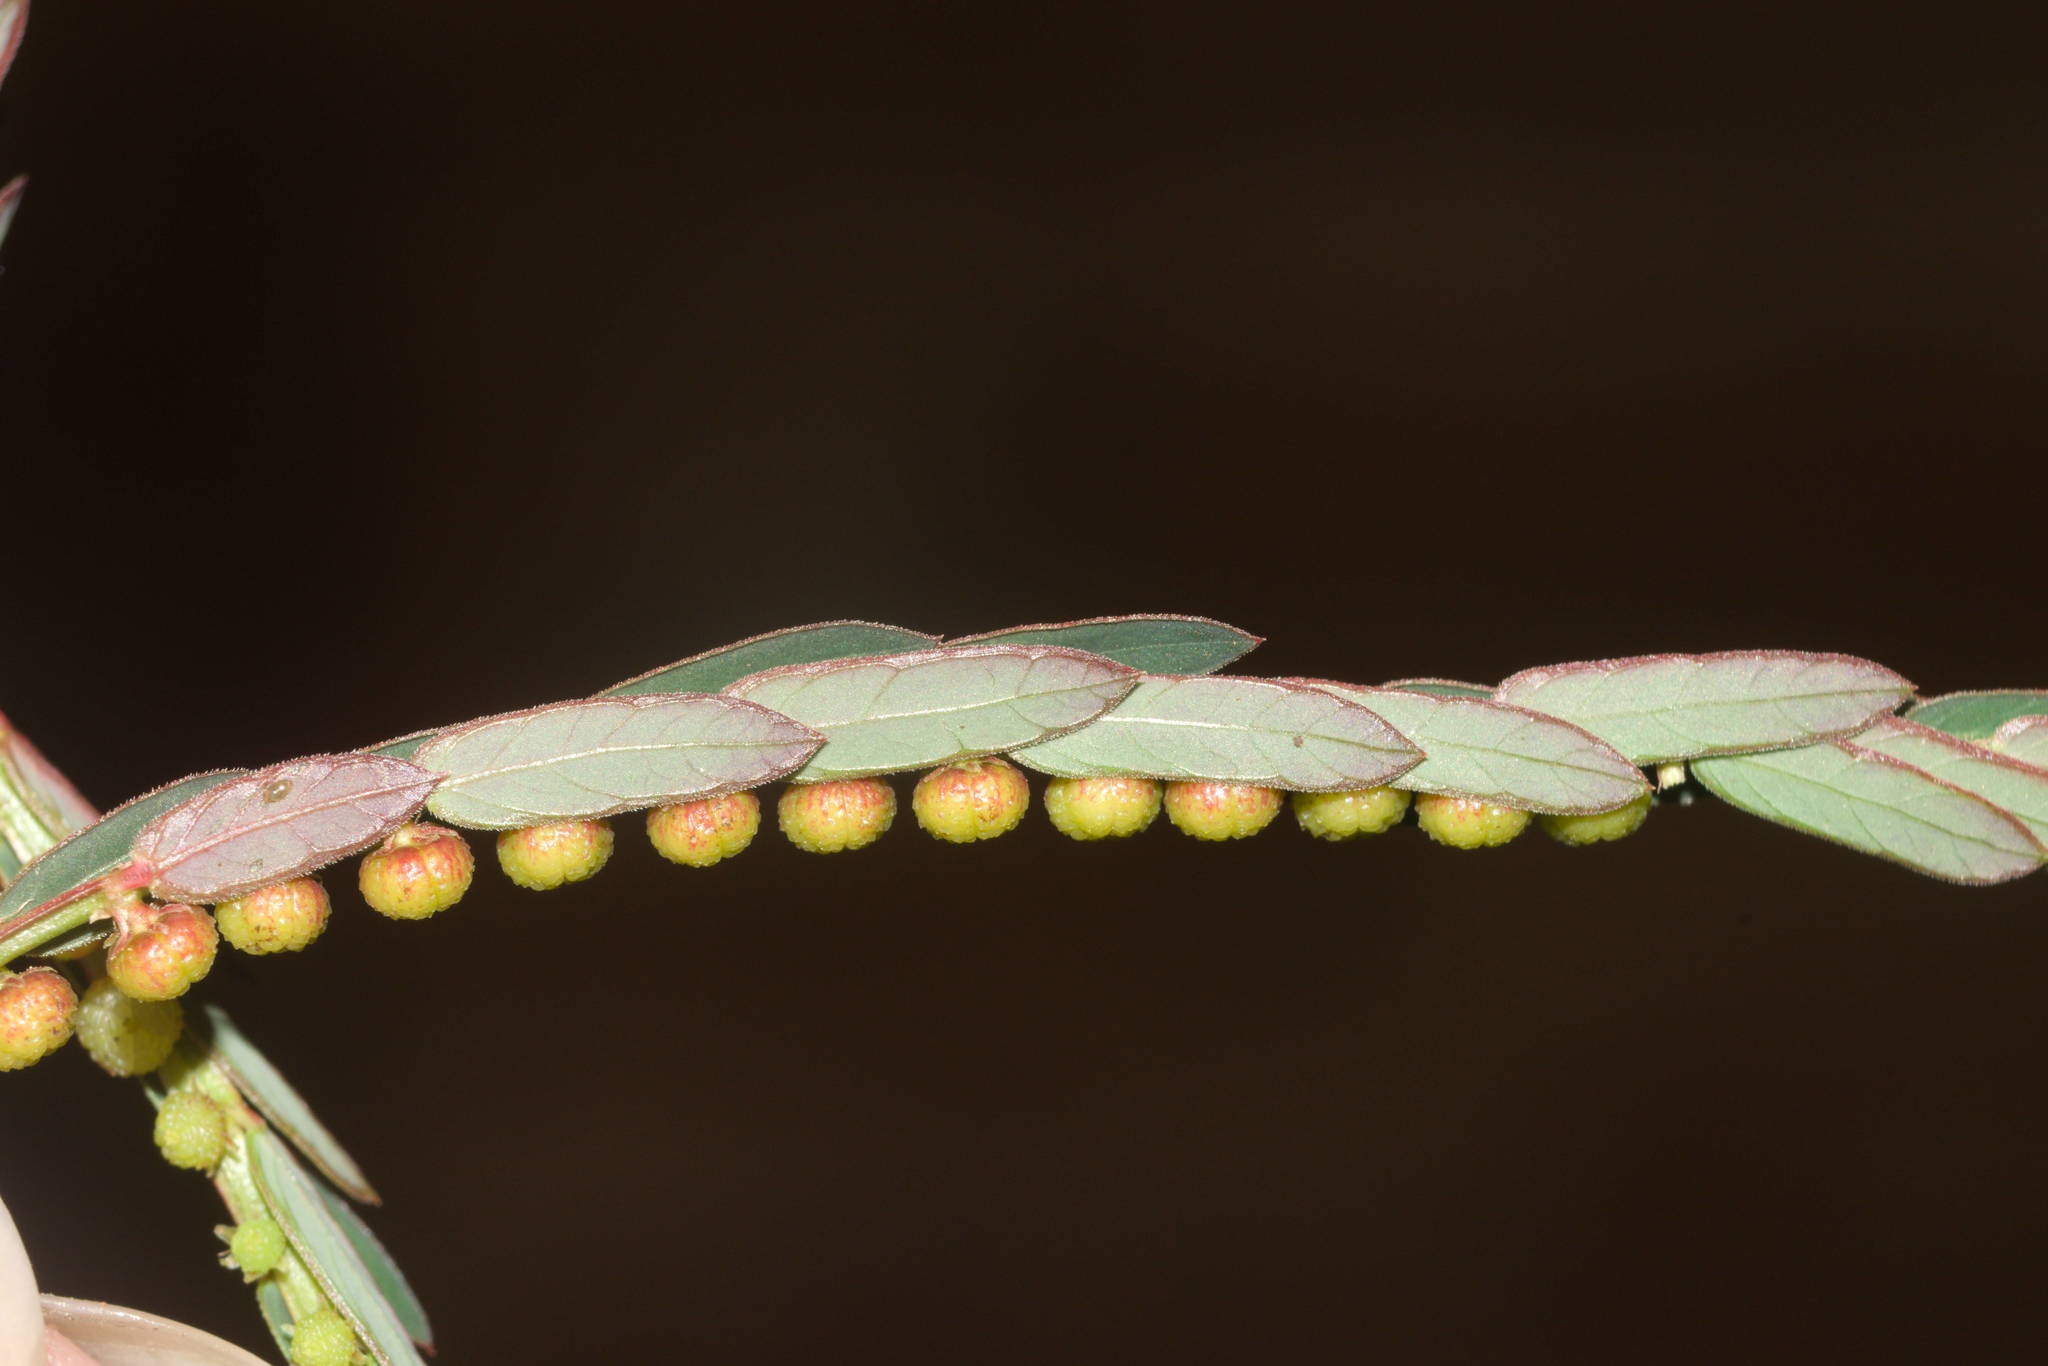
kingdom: Plantae
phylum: Tracheophyta
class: Magnoliopsida
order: Malpighiales
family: Phyllanthaceae
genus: Phyllanthus
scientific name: Phyllanthus urinaria
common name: Chamber bitter
